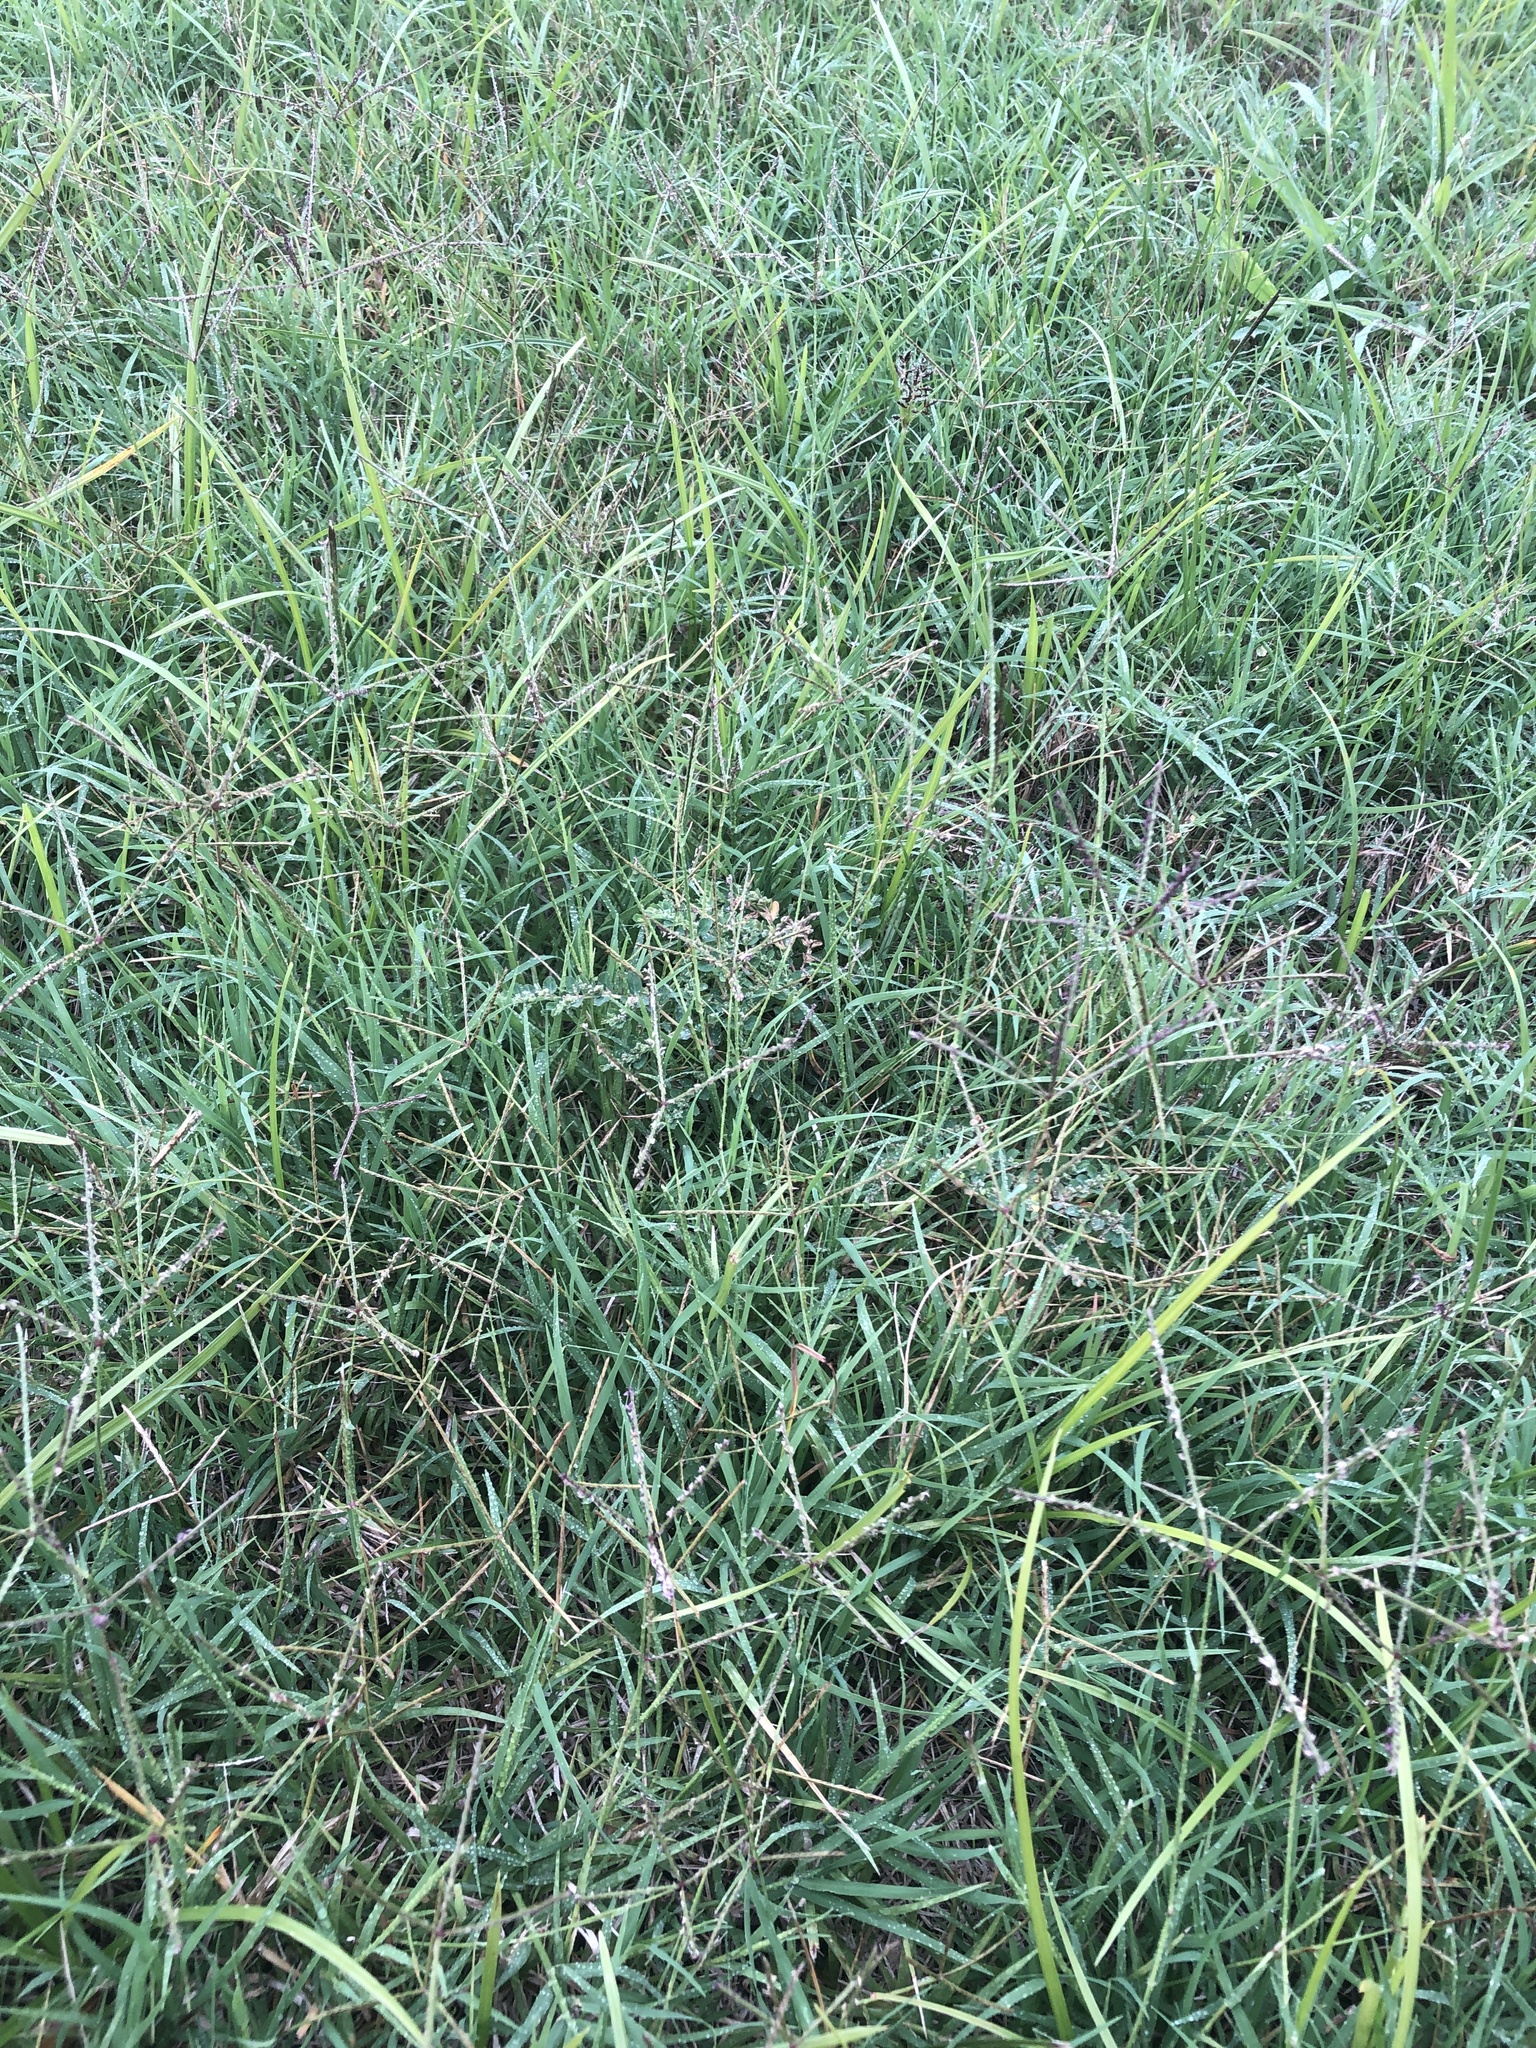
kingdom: Plantae
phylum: Tracheophyta
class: Liliopsida
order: Poales
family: Poaceae
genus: Cynodon
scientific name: Cynodon dactylon
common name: Bermuda grass
